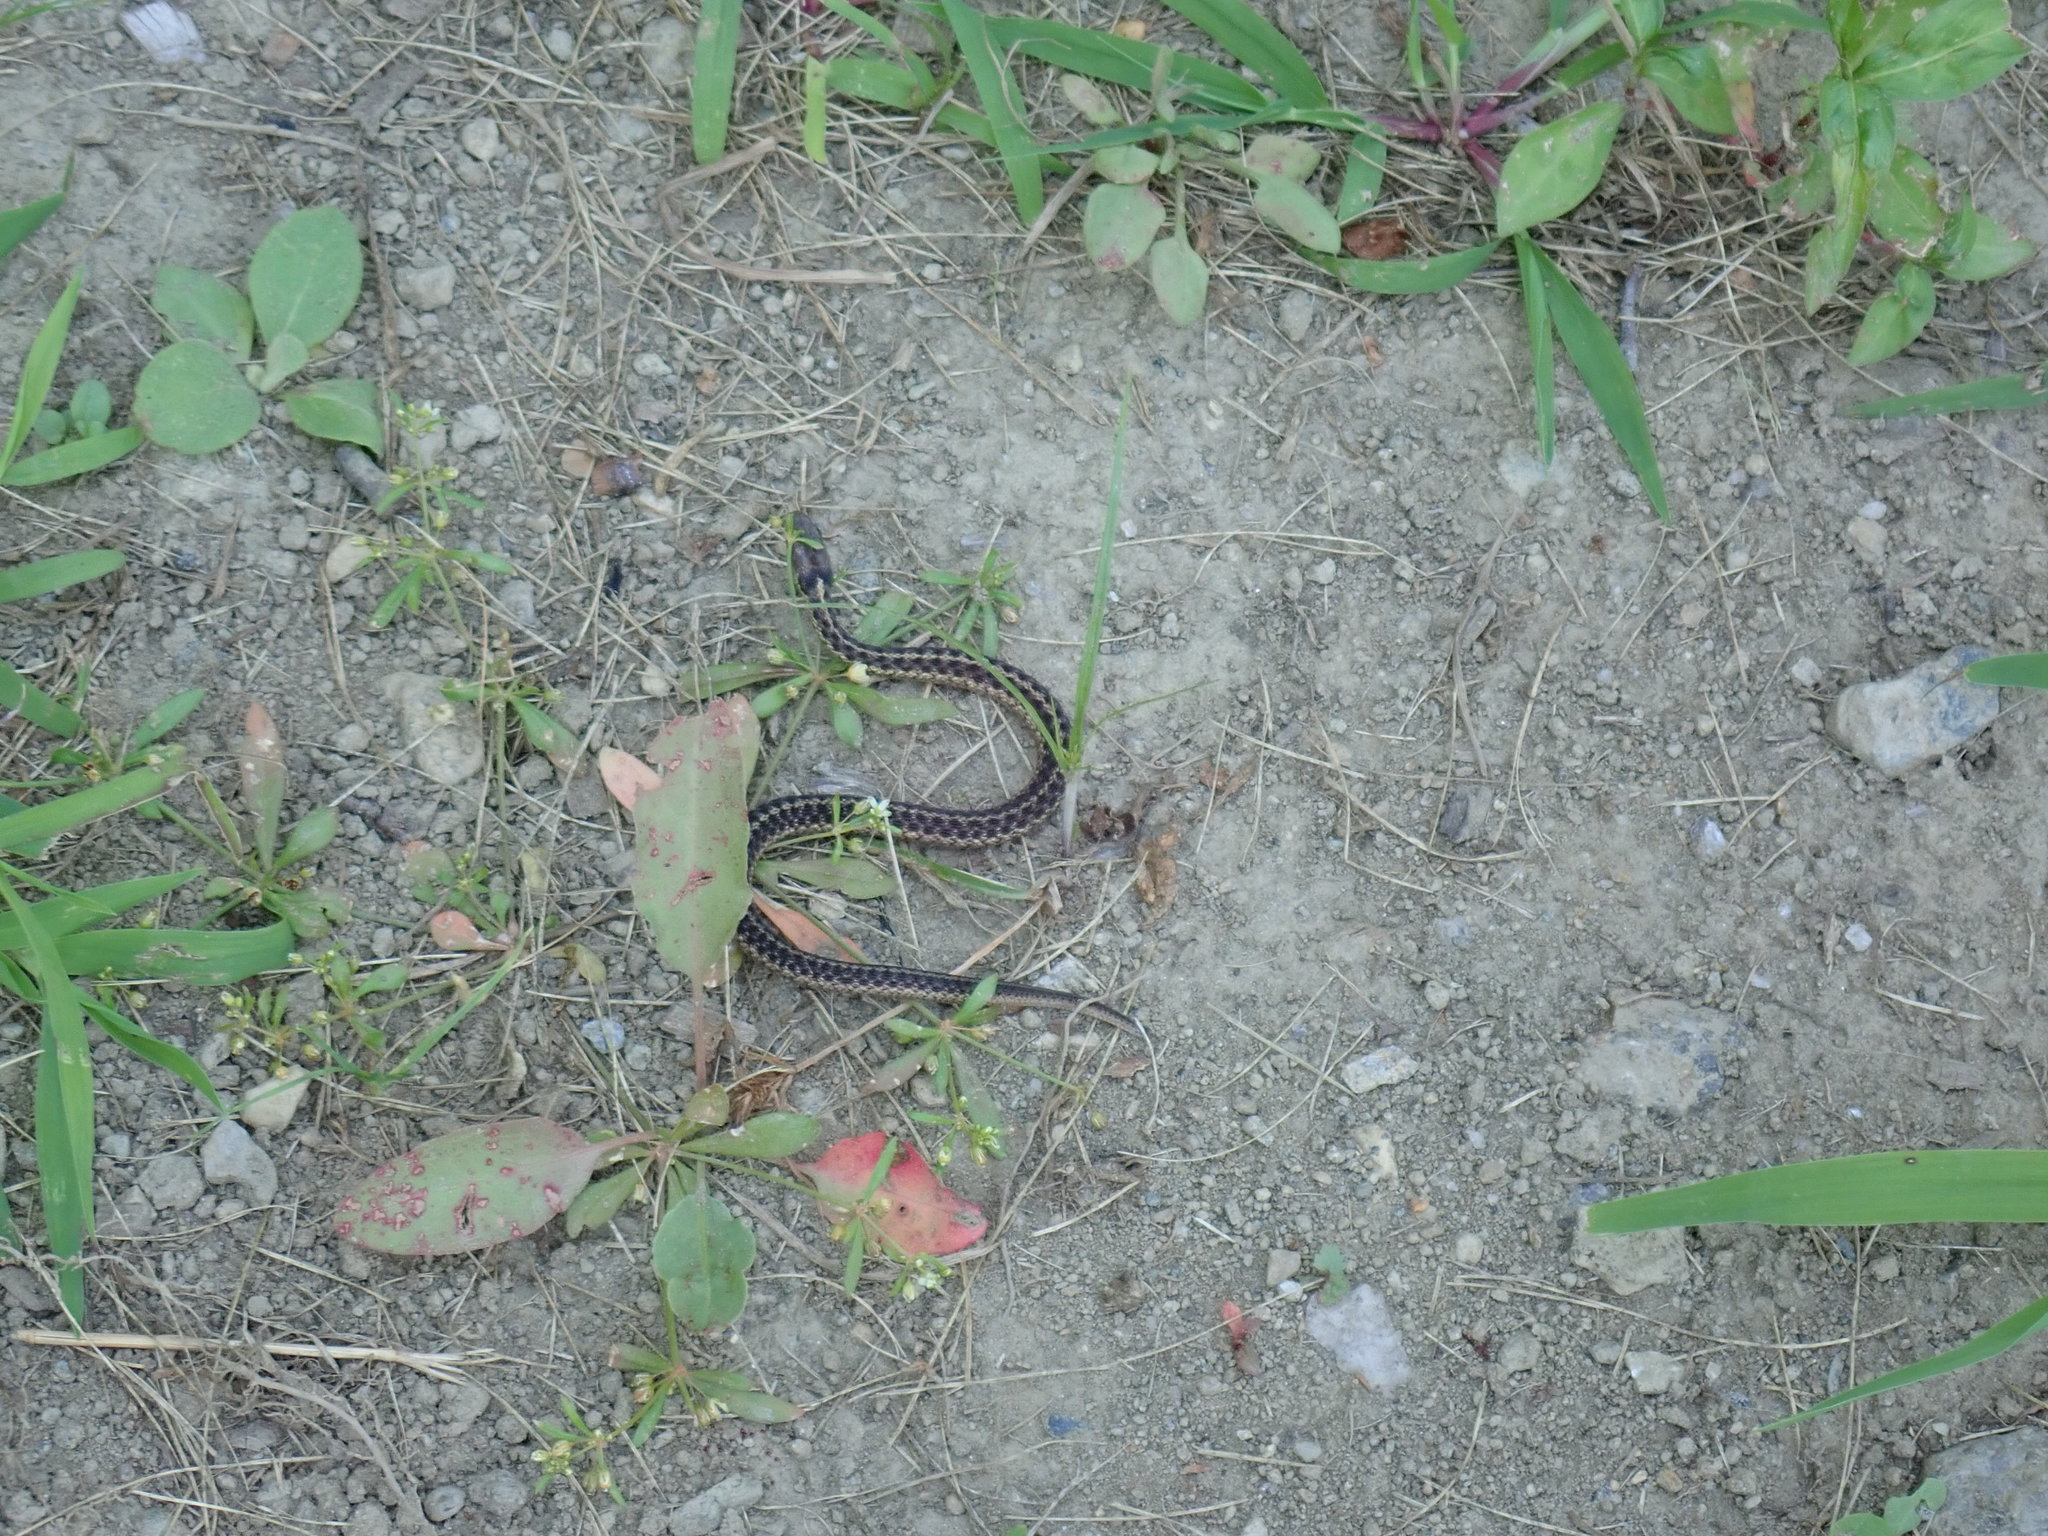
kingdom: Animalia
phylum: Chordata
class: Squamata
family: Colubridae
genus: Thamnophis
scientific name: Thamnophis sirtalis
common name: Common garter snake
